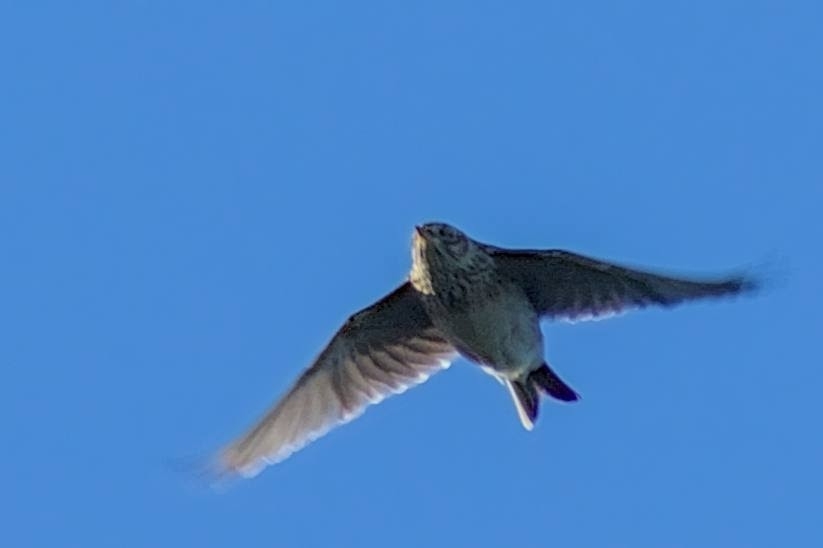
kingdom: Animalia
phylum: Chordata
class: Aves
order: Passeriformes
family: Alaudidae
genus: Alauda
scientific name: Alauda arvensis
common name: Eurasian skylark
